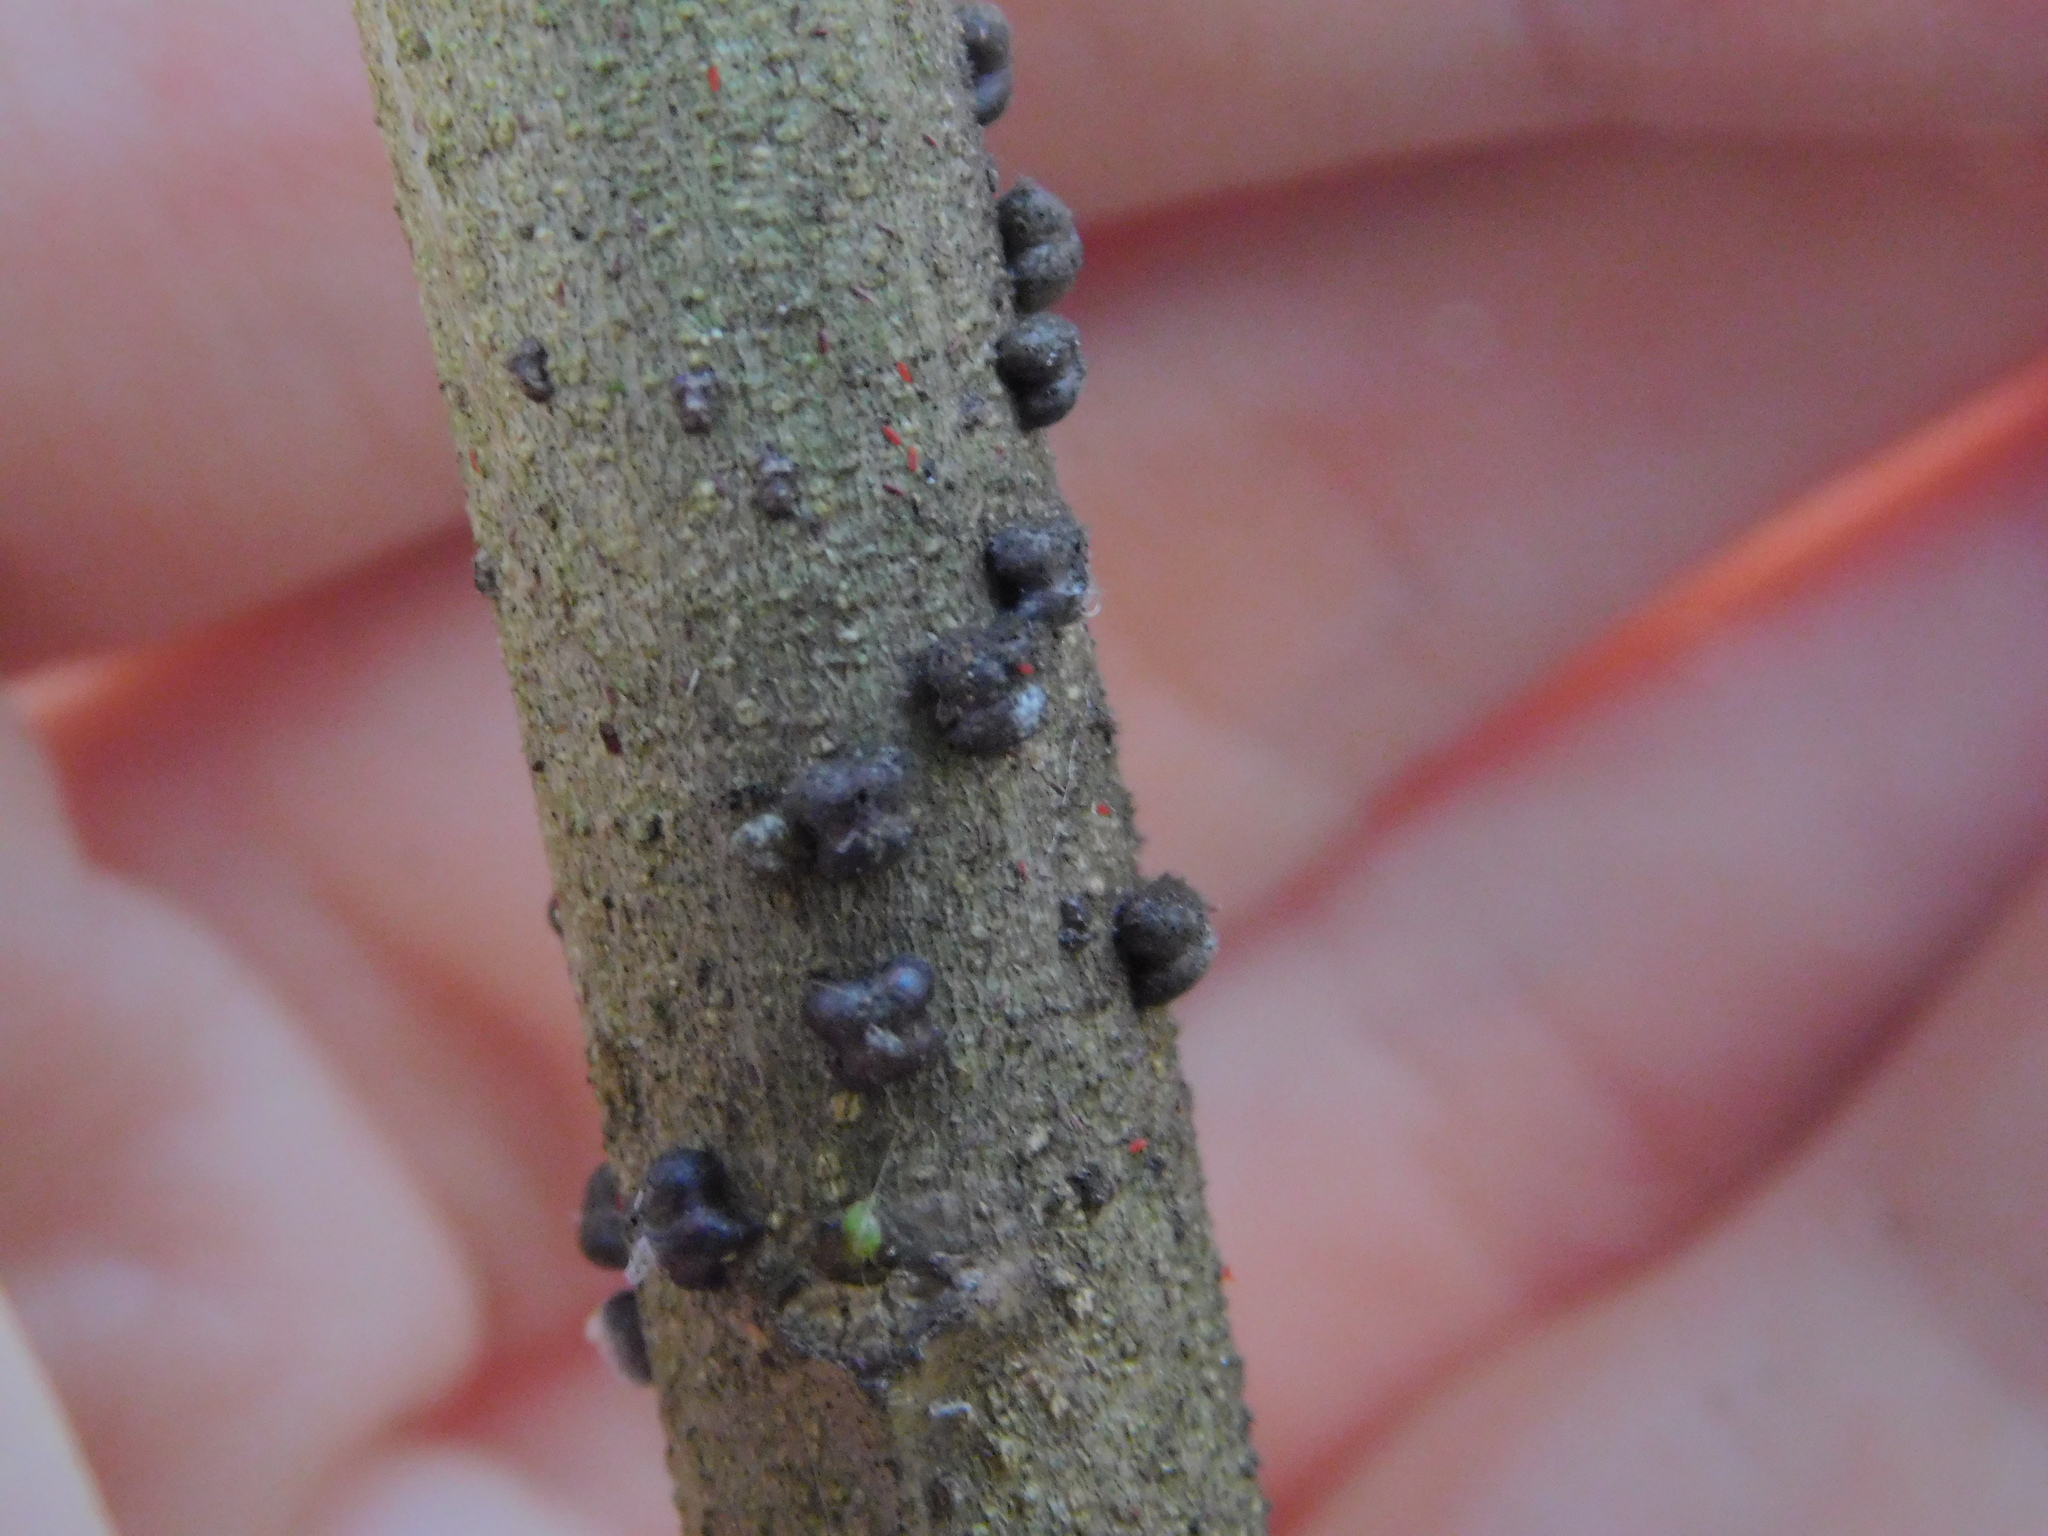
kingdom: Animalia
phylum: Arthropoda
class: Insecta
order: Hemiptera
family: Kerriidae
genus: Paratachardina
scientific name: Paratachardina pseudolobata
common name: Lobate lac scale
